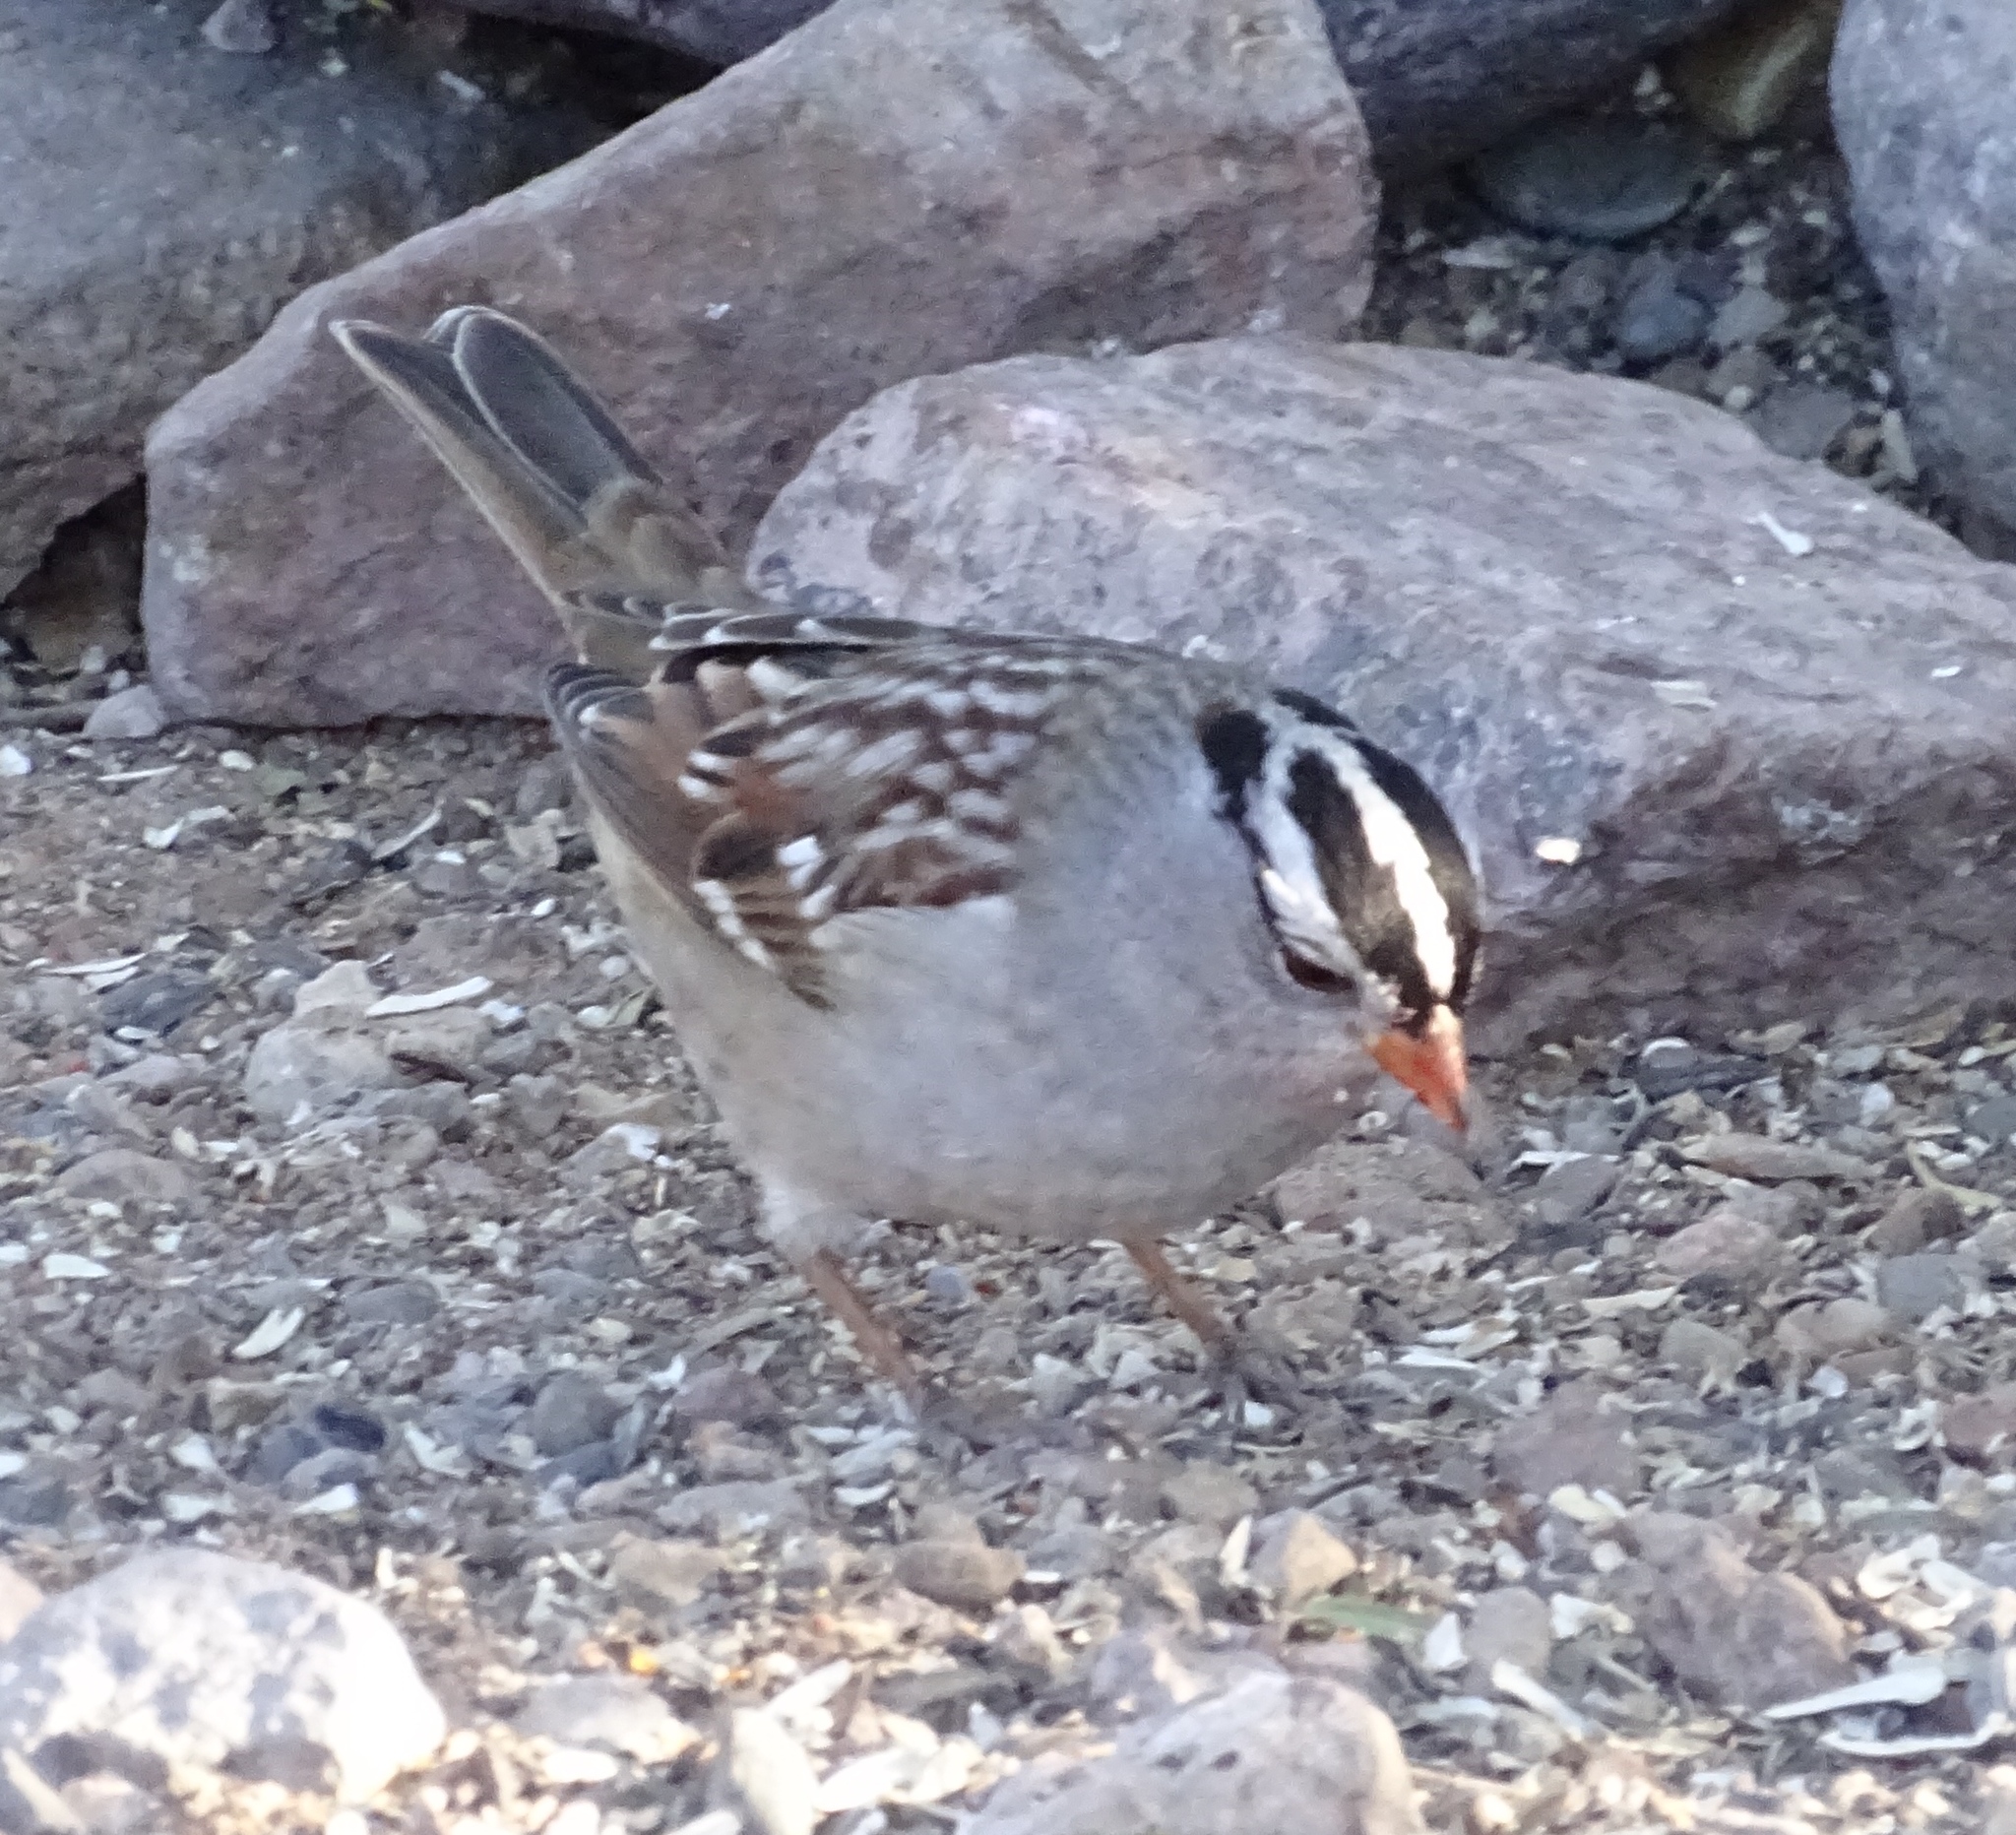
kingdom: Animalia
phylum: Chordata
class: Aves
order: Passeriformes
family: Passerellidae
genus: Zonotrichia
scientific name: Zonotrichia leucophrys
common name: White-crowned sparrow
